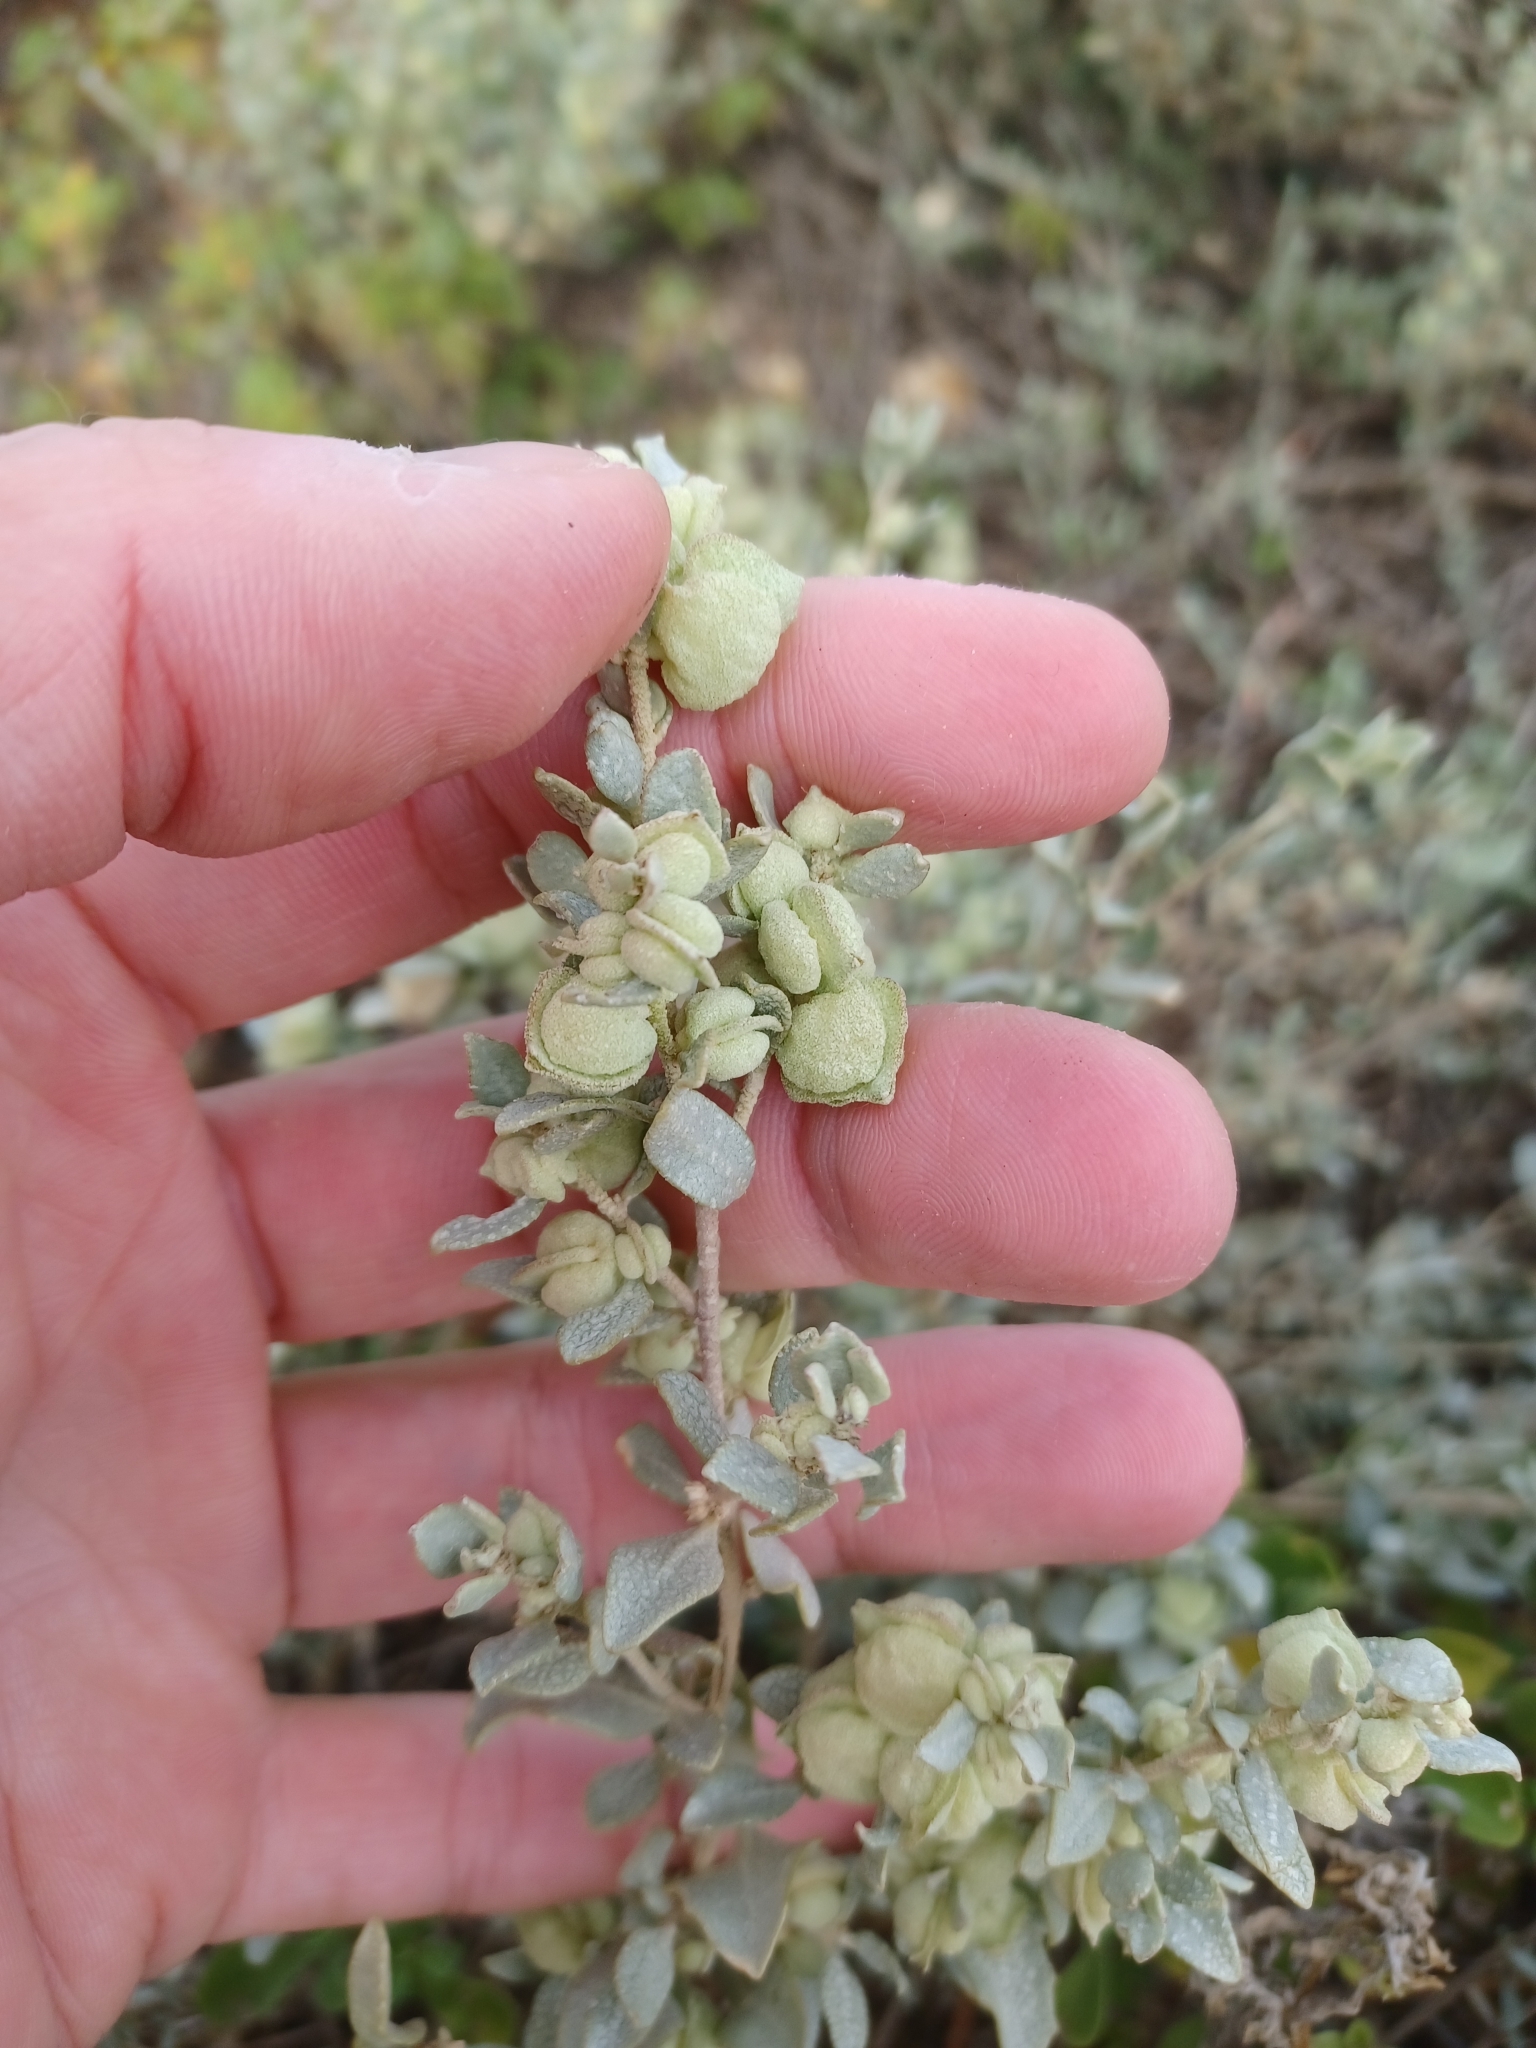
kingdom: Plantae
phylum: Tracheophyta
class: Magnoliopsida
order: Caryophyllales
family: Amaranthaceae
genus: Atriplex
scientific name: Atriplex vesicaria
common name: Aboriginal saltbush
